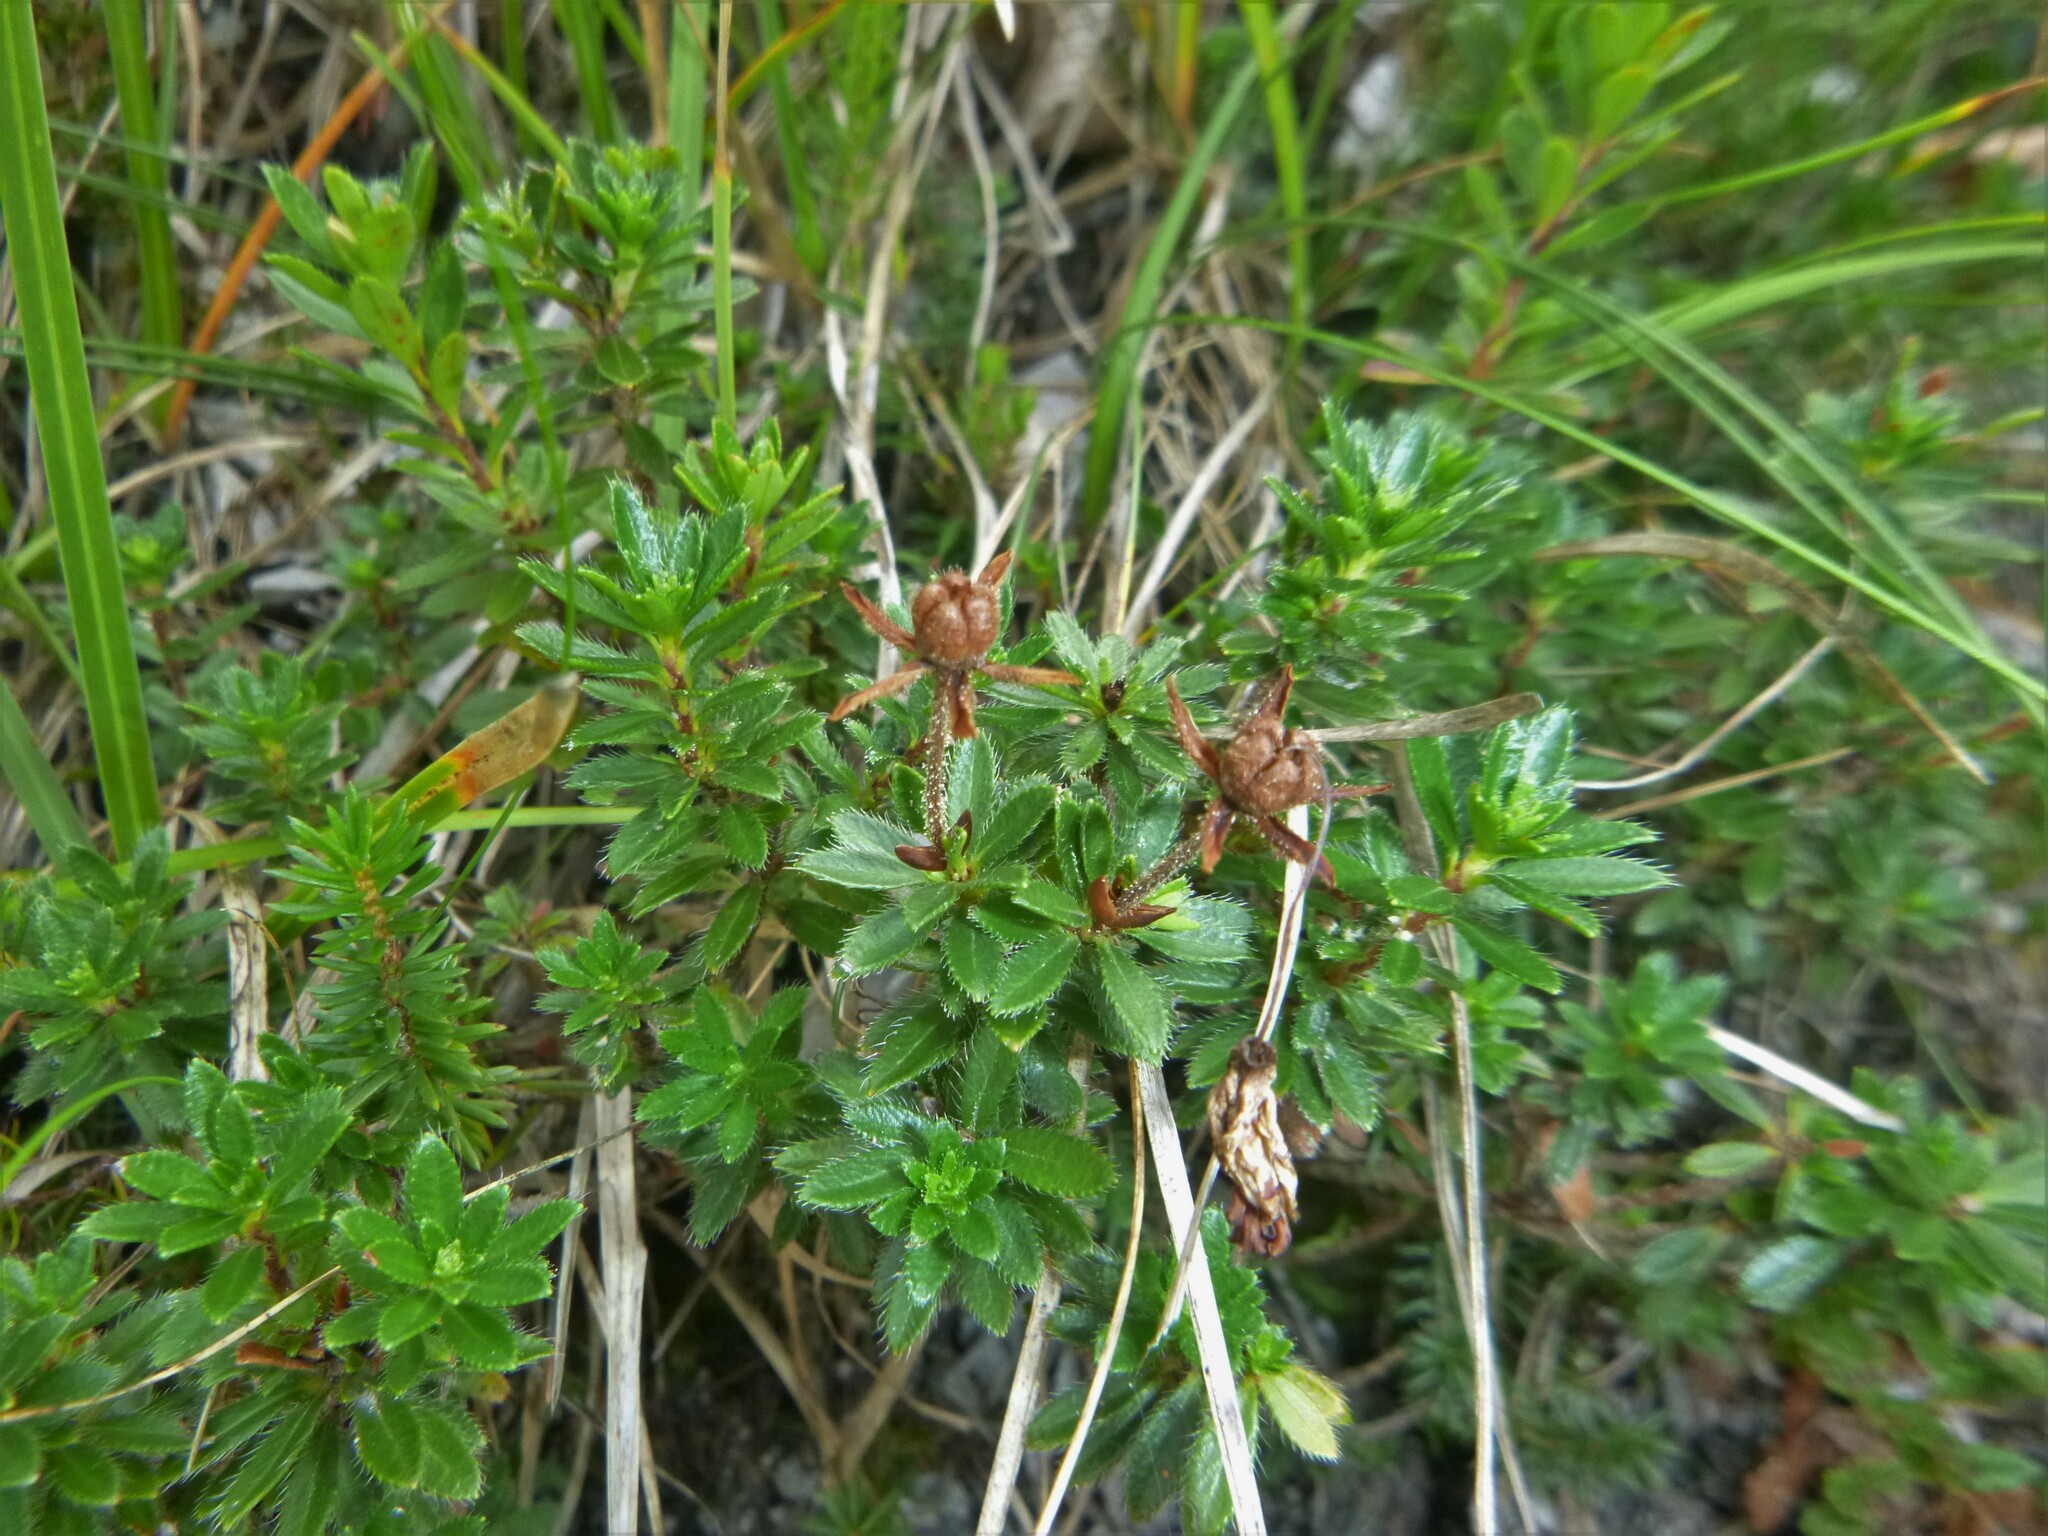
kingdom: Plantae
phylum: Tracheophyta
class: Magnoliopsida
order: Ericales
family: Ericaceae
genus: Rhodothamnus
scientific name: Rhodothamnus chamaecistus
